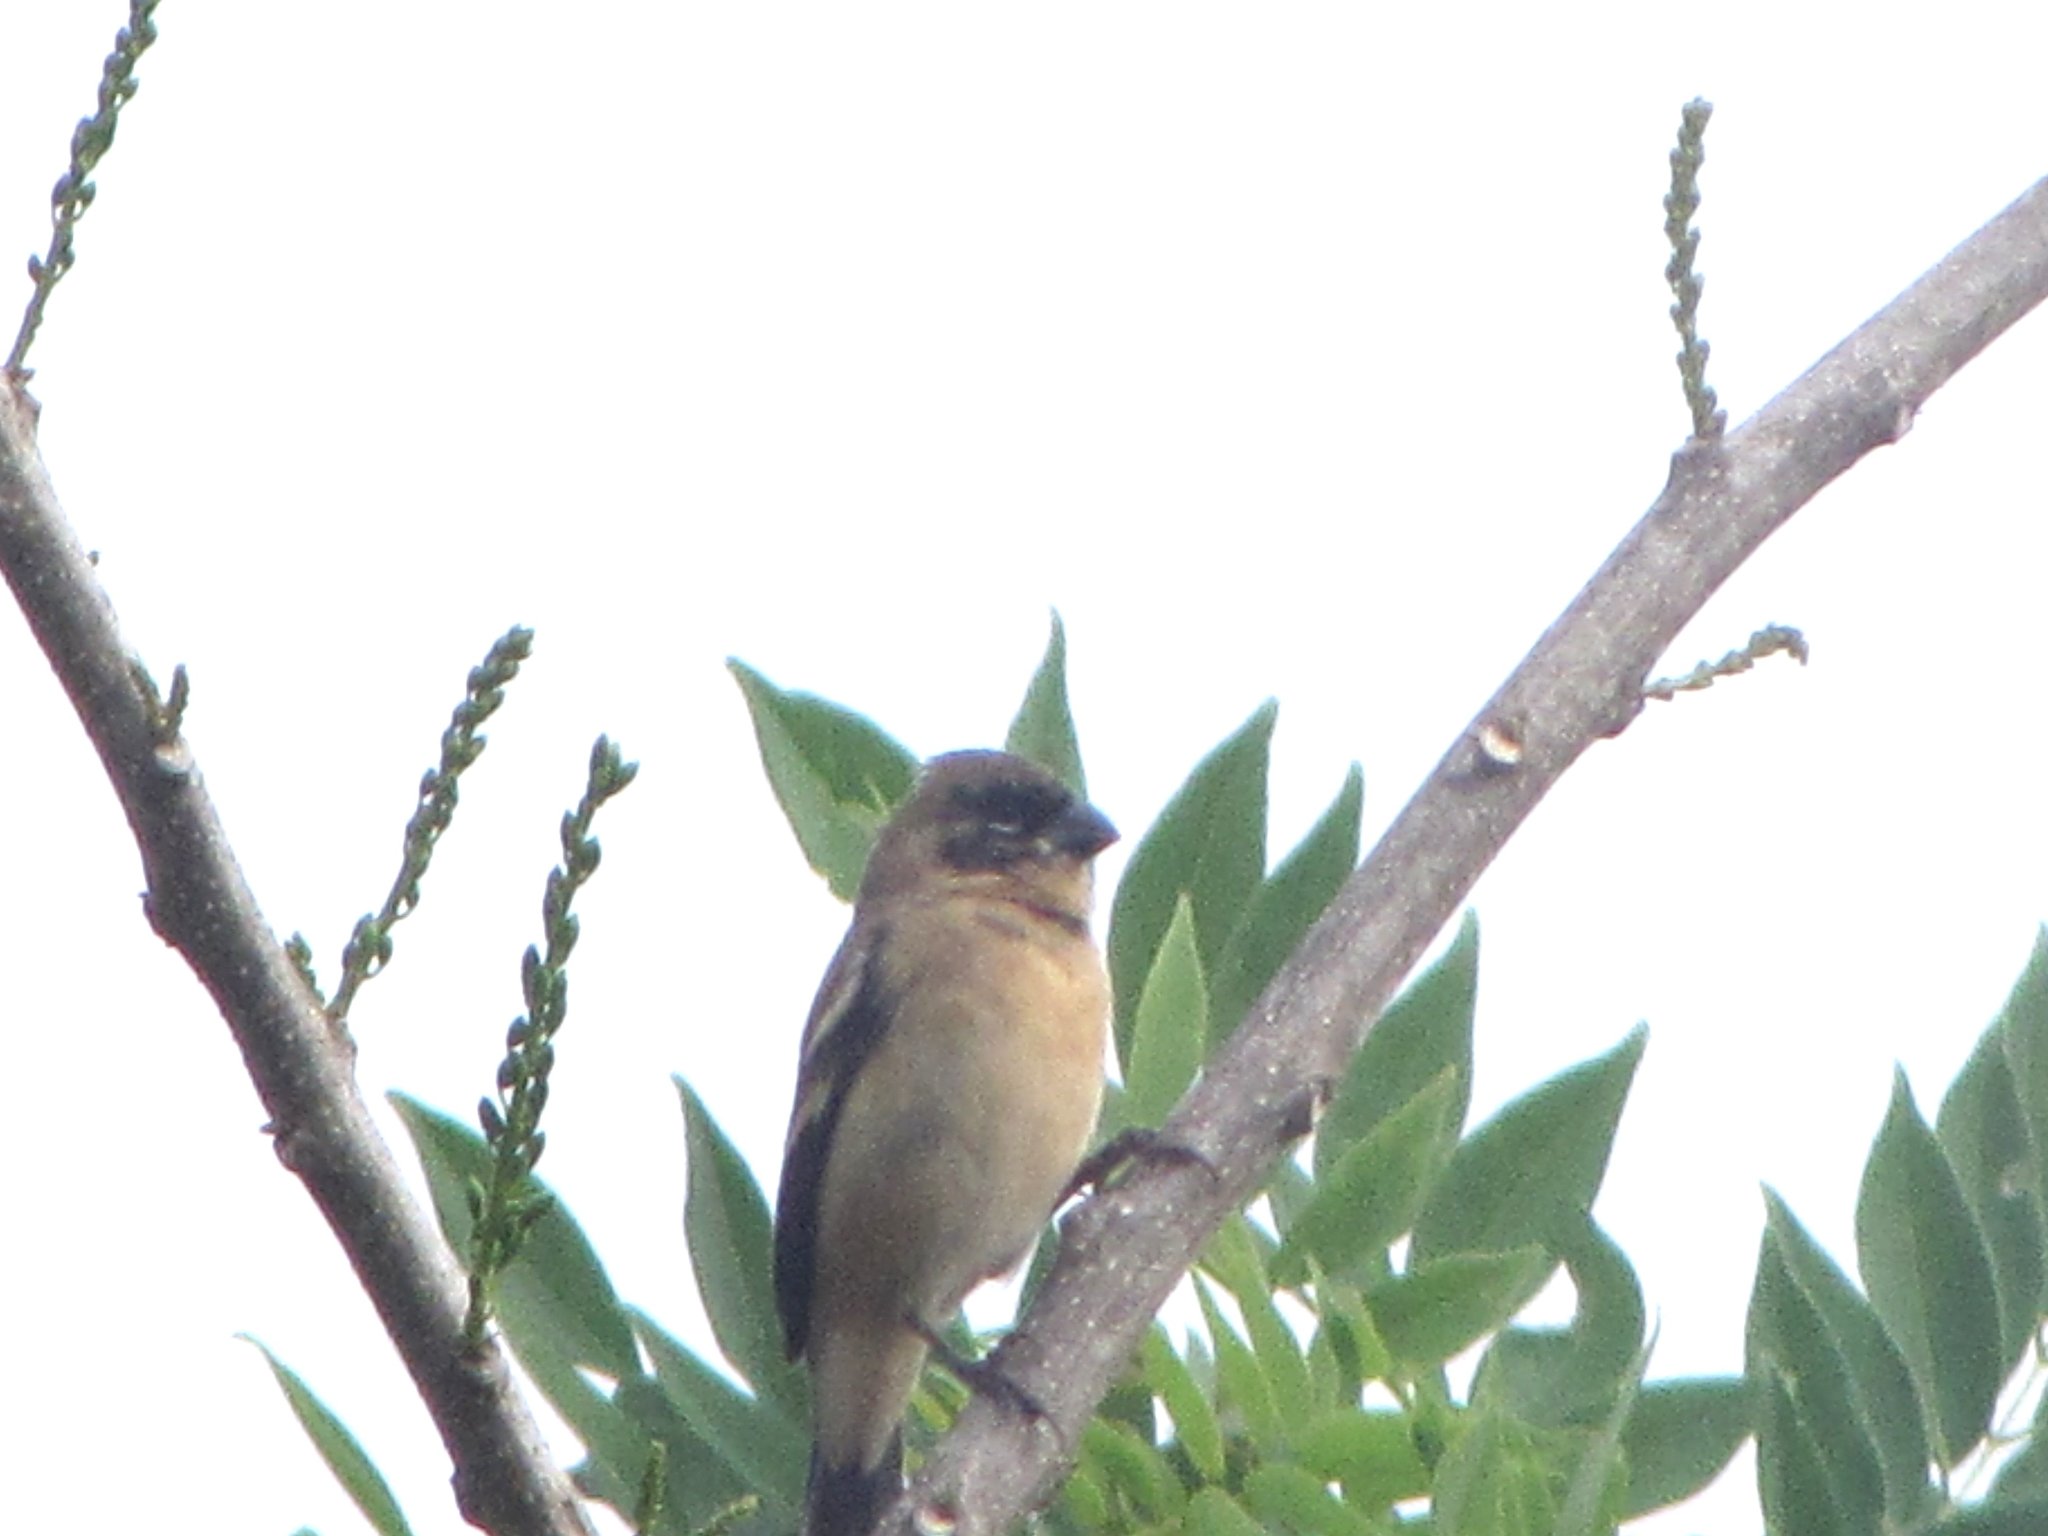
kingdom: Animalia
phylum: Chordata
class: Aves
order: Passeriformes
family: Thraupidae
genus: Sporophila
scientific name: Sporophila morelleti
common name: Morelet's seedeater
